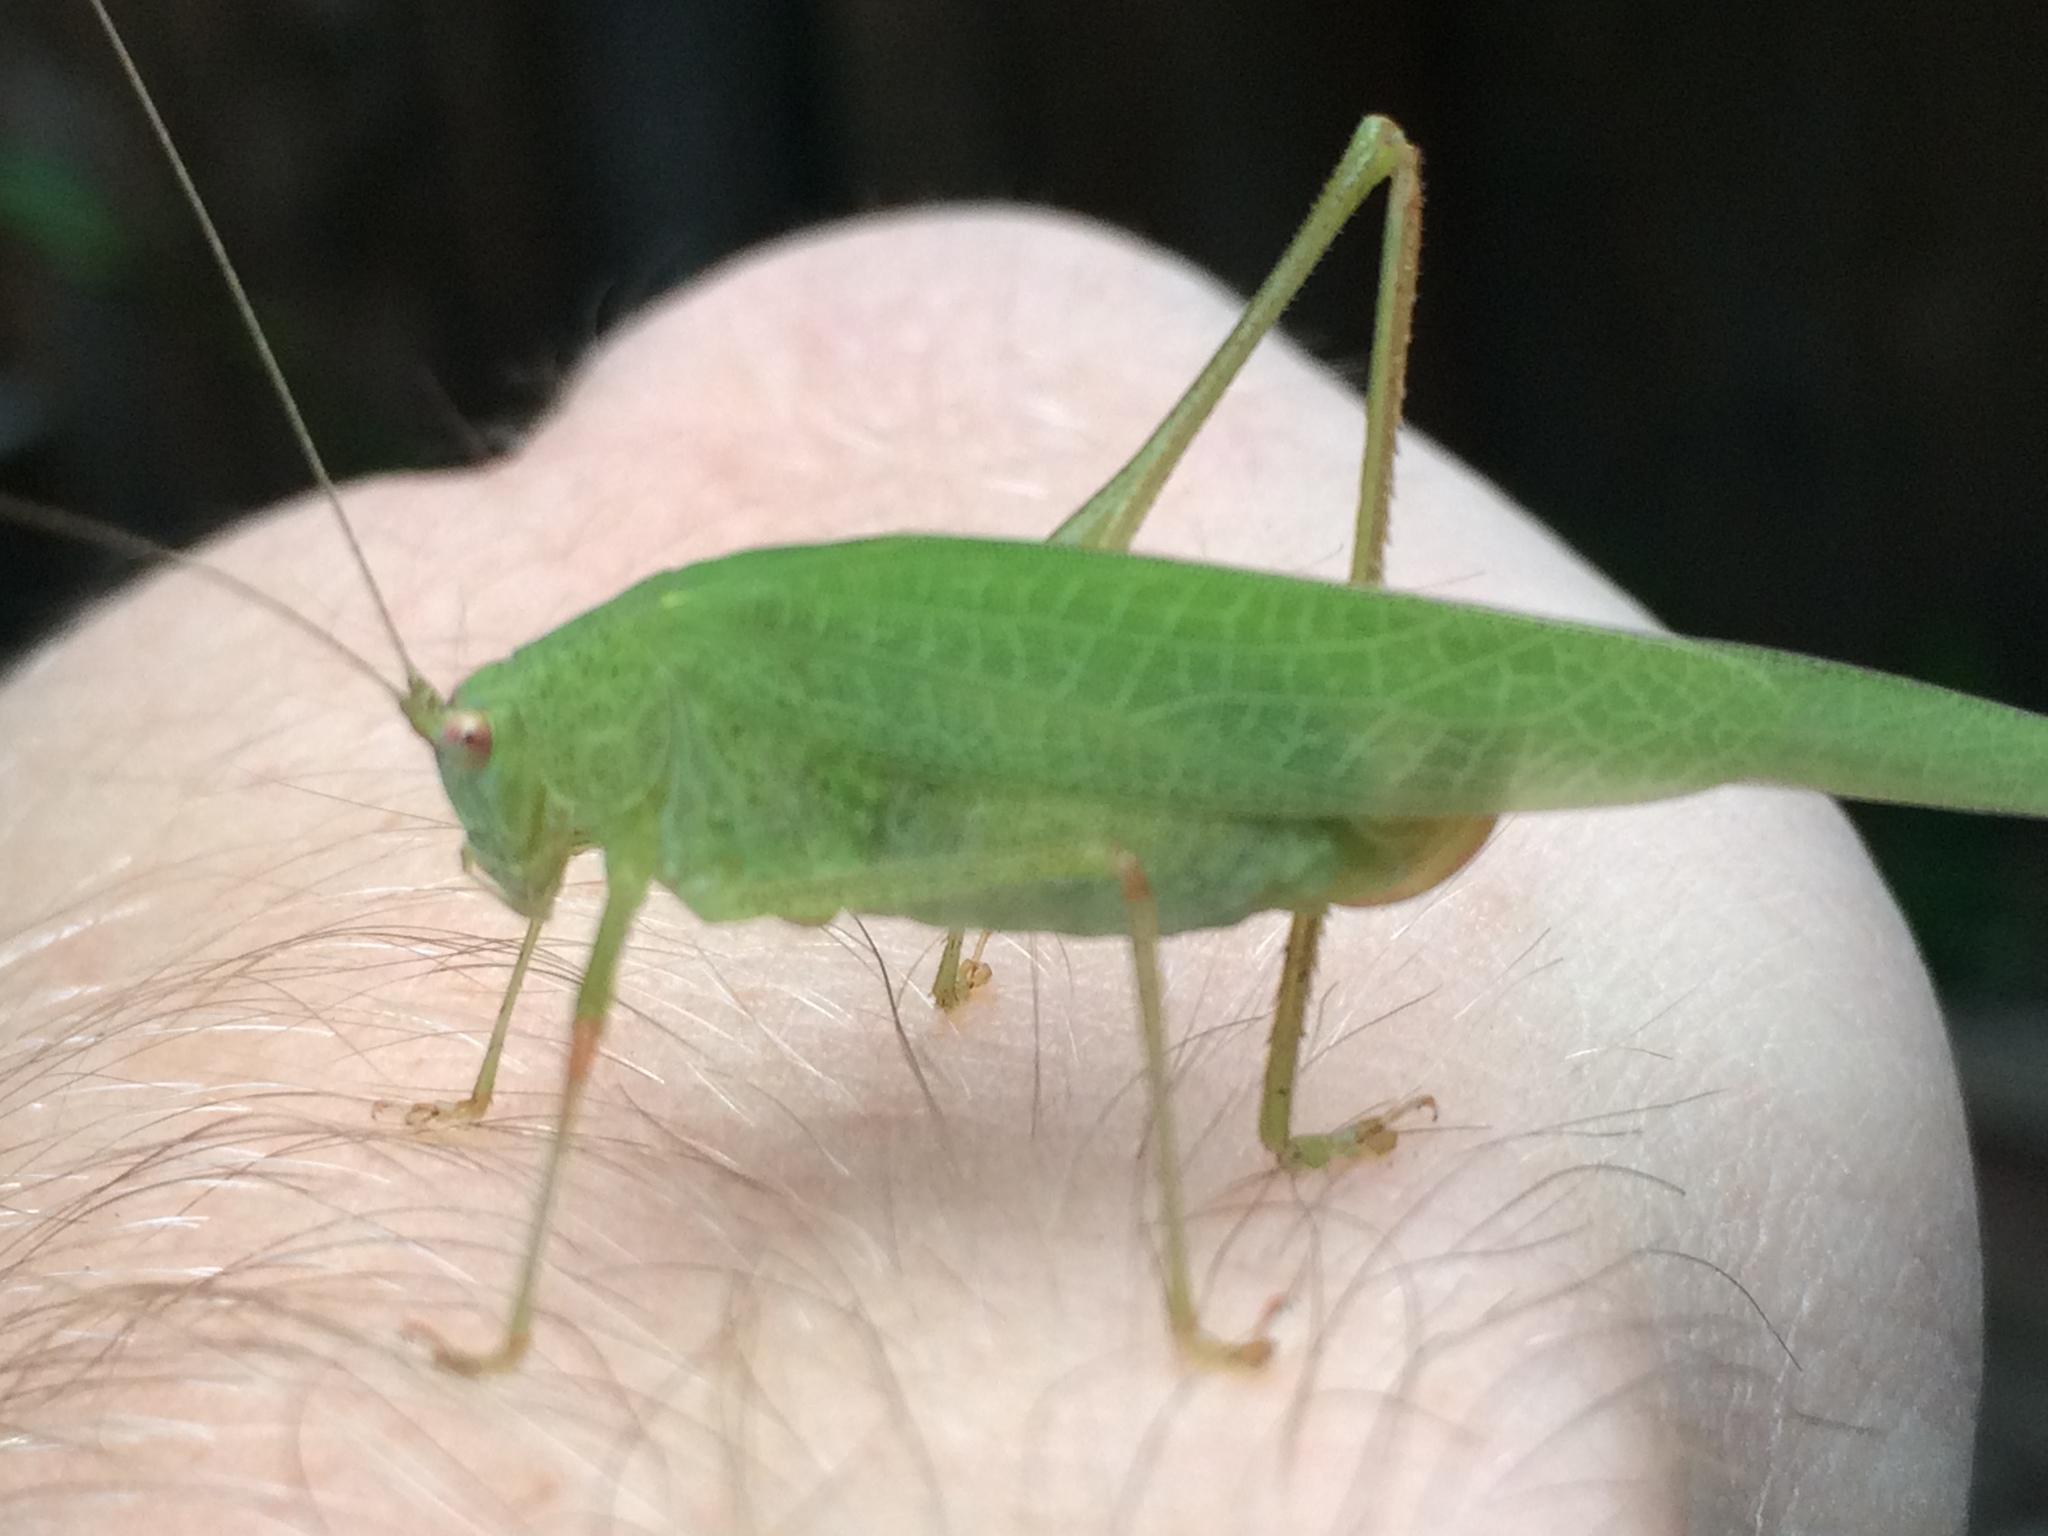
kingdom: Animalia
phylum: Arthropoda
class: Insecta
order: Orthoptera
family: Tettigoniidae
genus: Phaneroptera
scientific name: Phaneroptera nana
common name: Southern sickle bush-cricket
